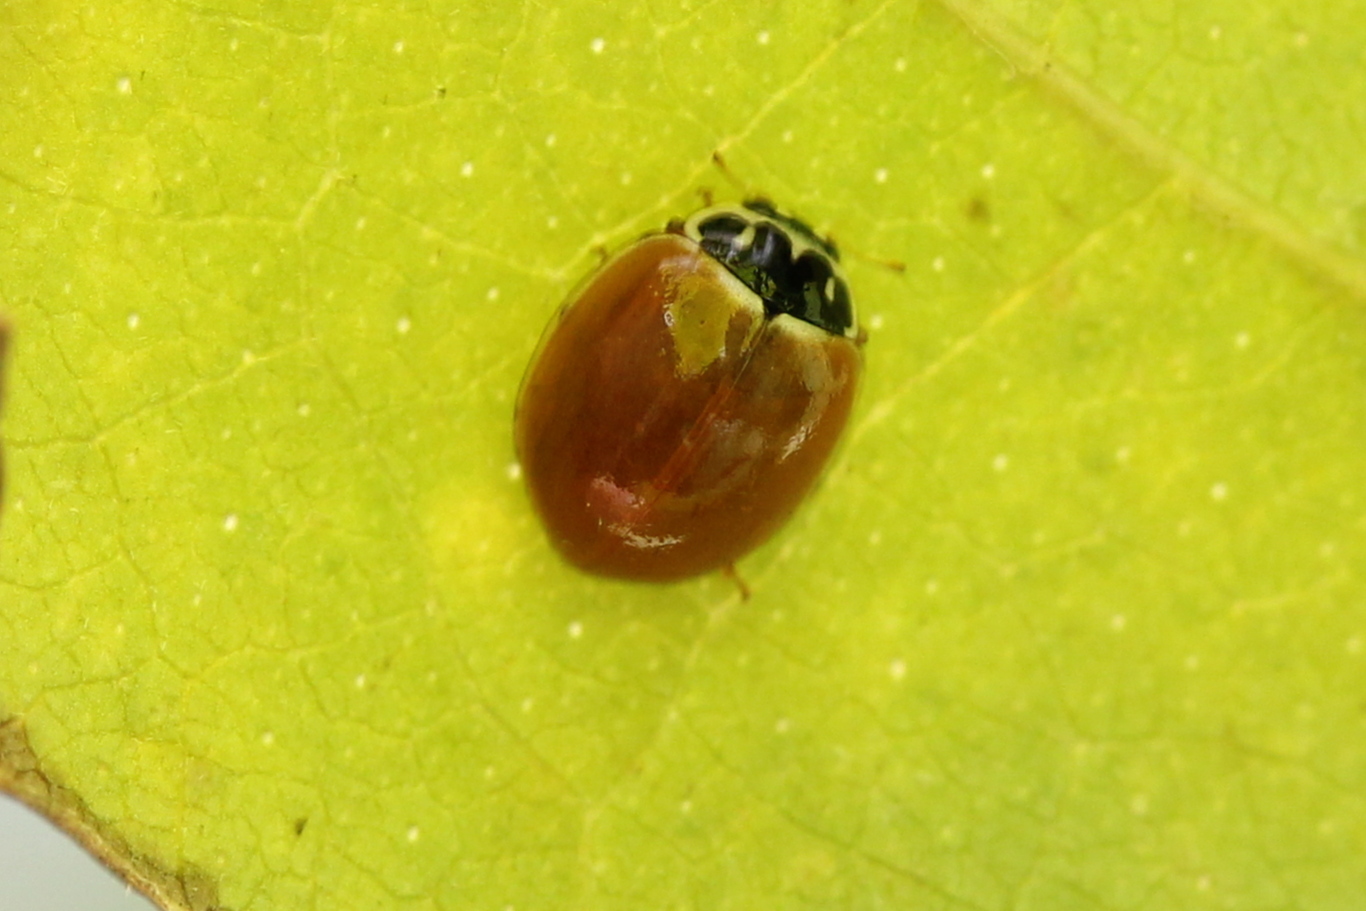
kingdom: Animalia
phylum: Arthropoda
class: Insecta
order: Coleoptera
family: Coccinellidae
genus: Cycloneda
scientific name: Cycloneda munda
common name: Polished lady beetle
